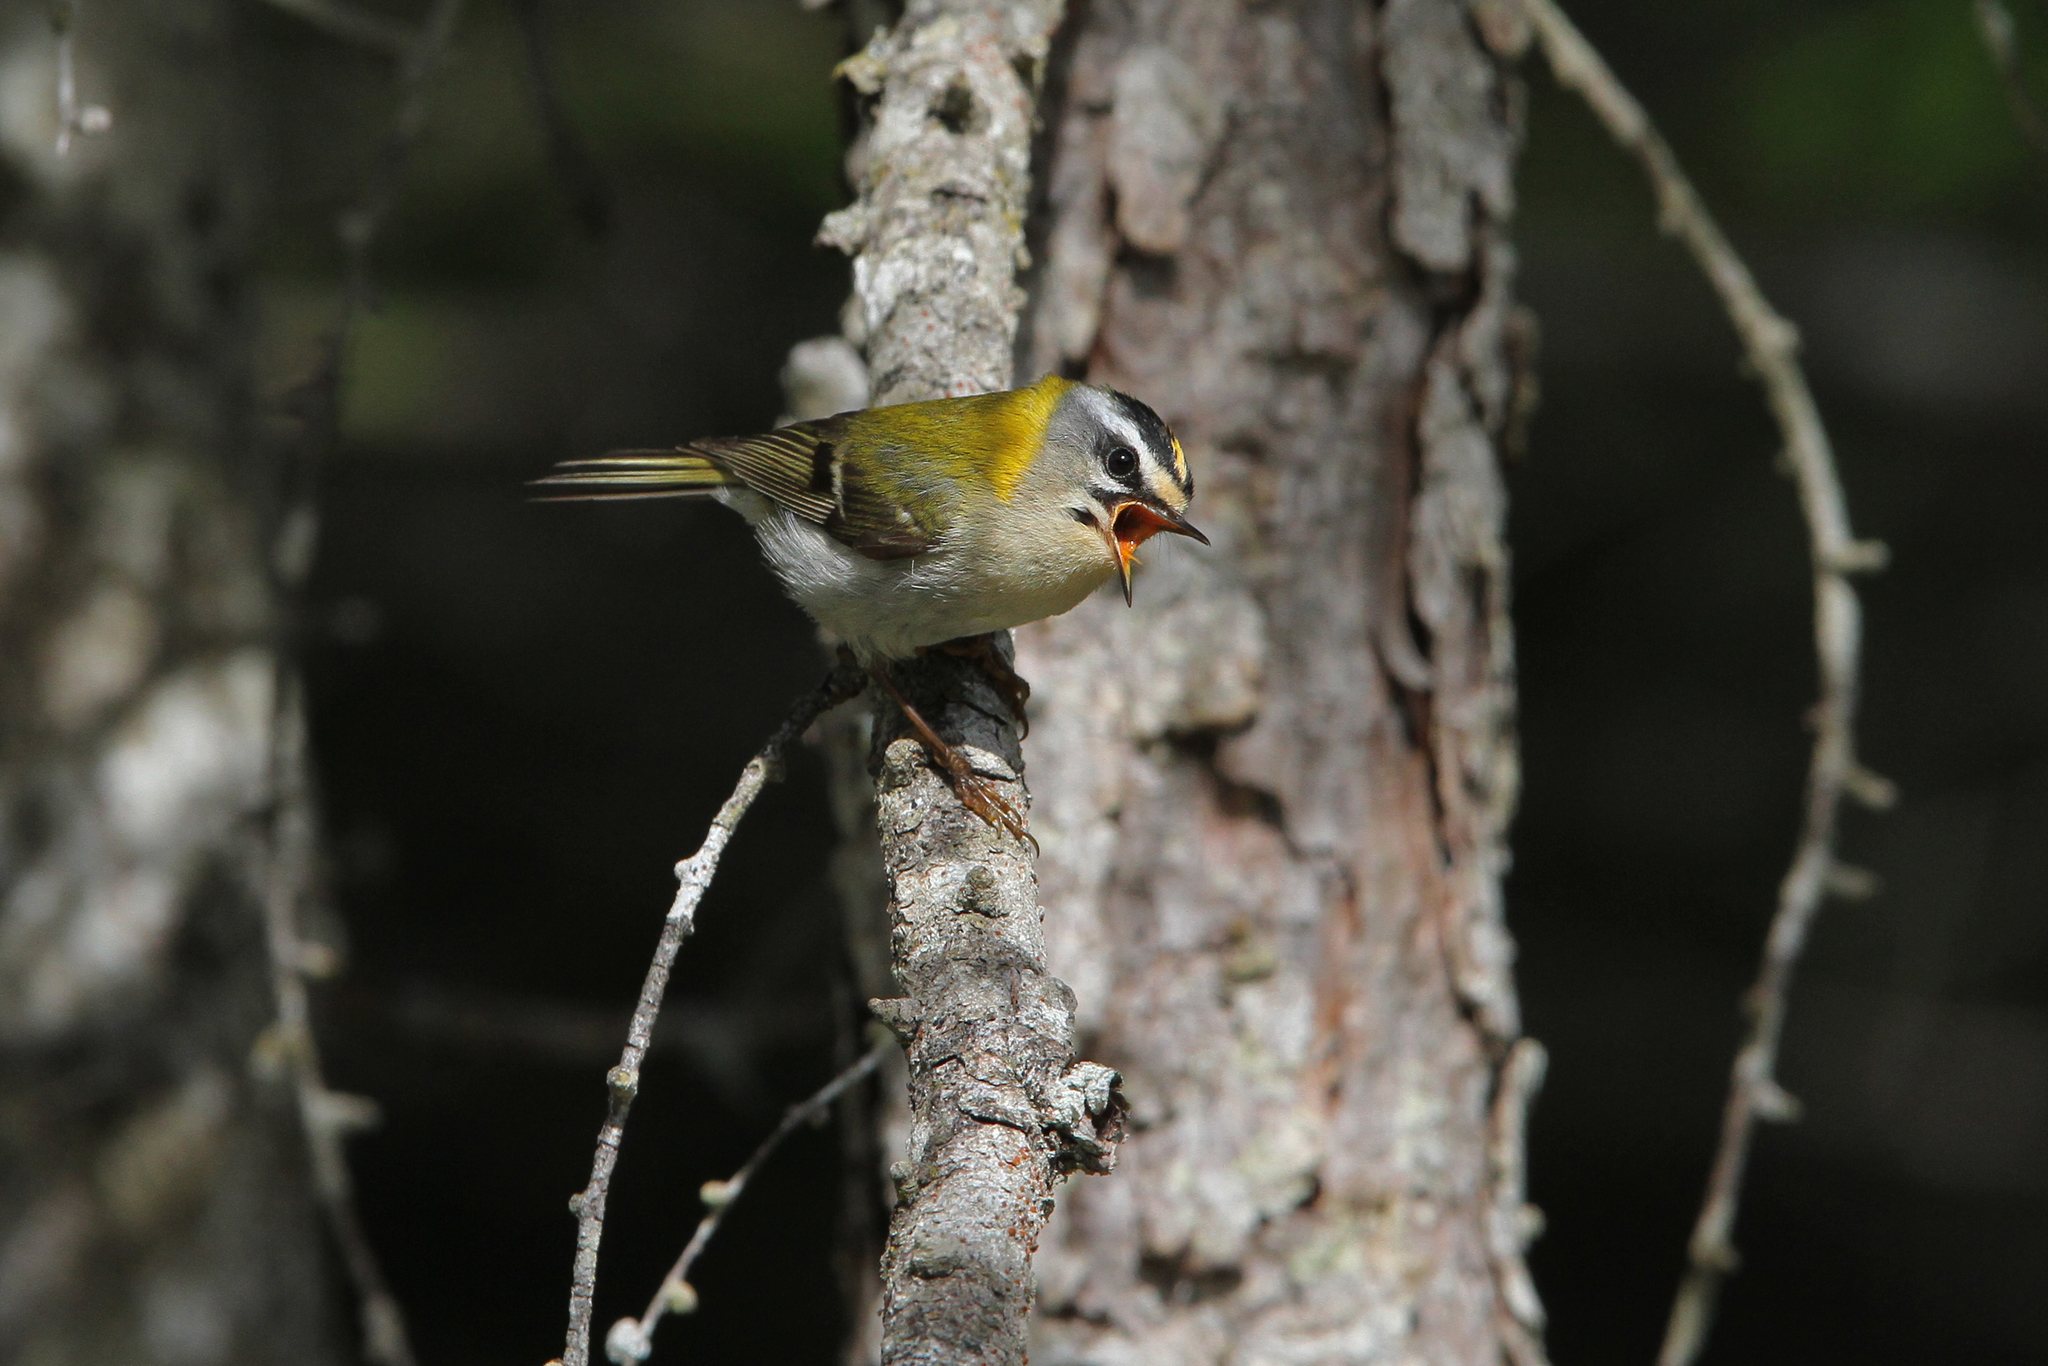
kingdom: Animalia
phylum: Chordata
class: Aves
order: Passeriformes
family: Regulidae
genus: Regulus
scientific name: Regulus ignicapilla
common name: Firecrest
